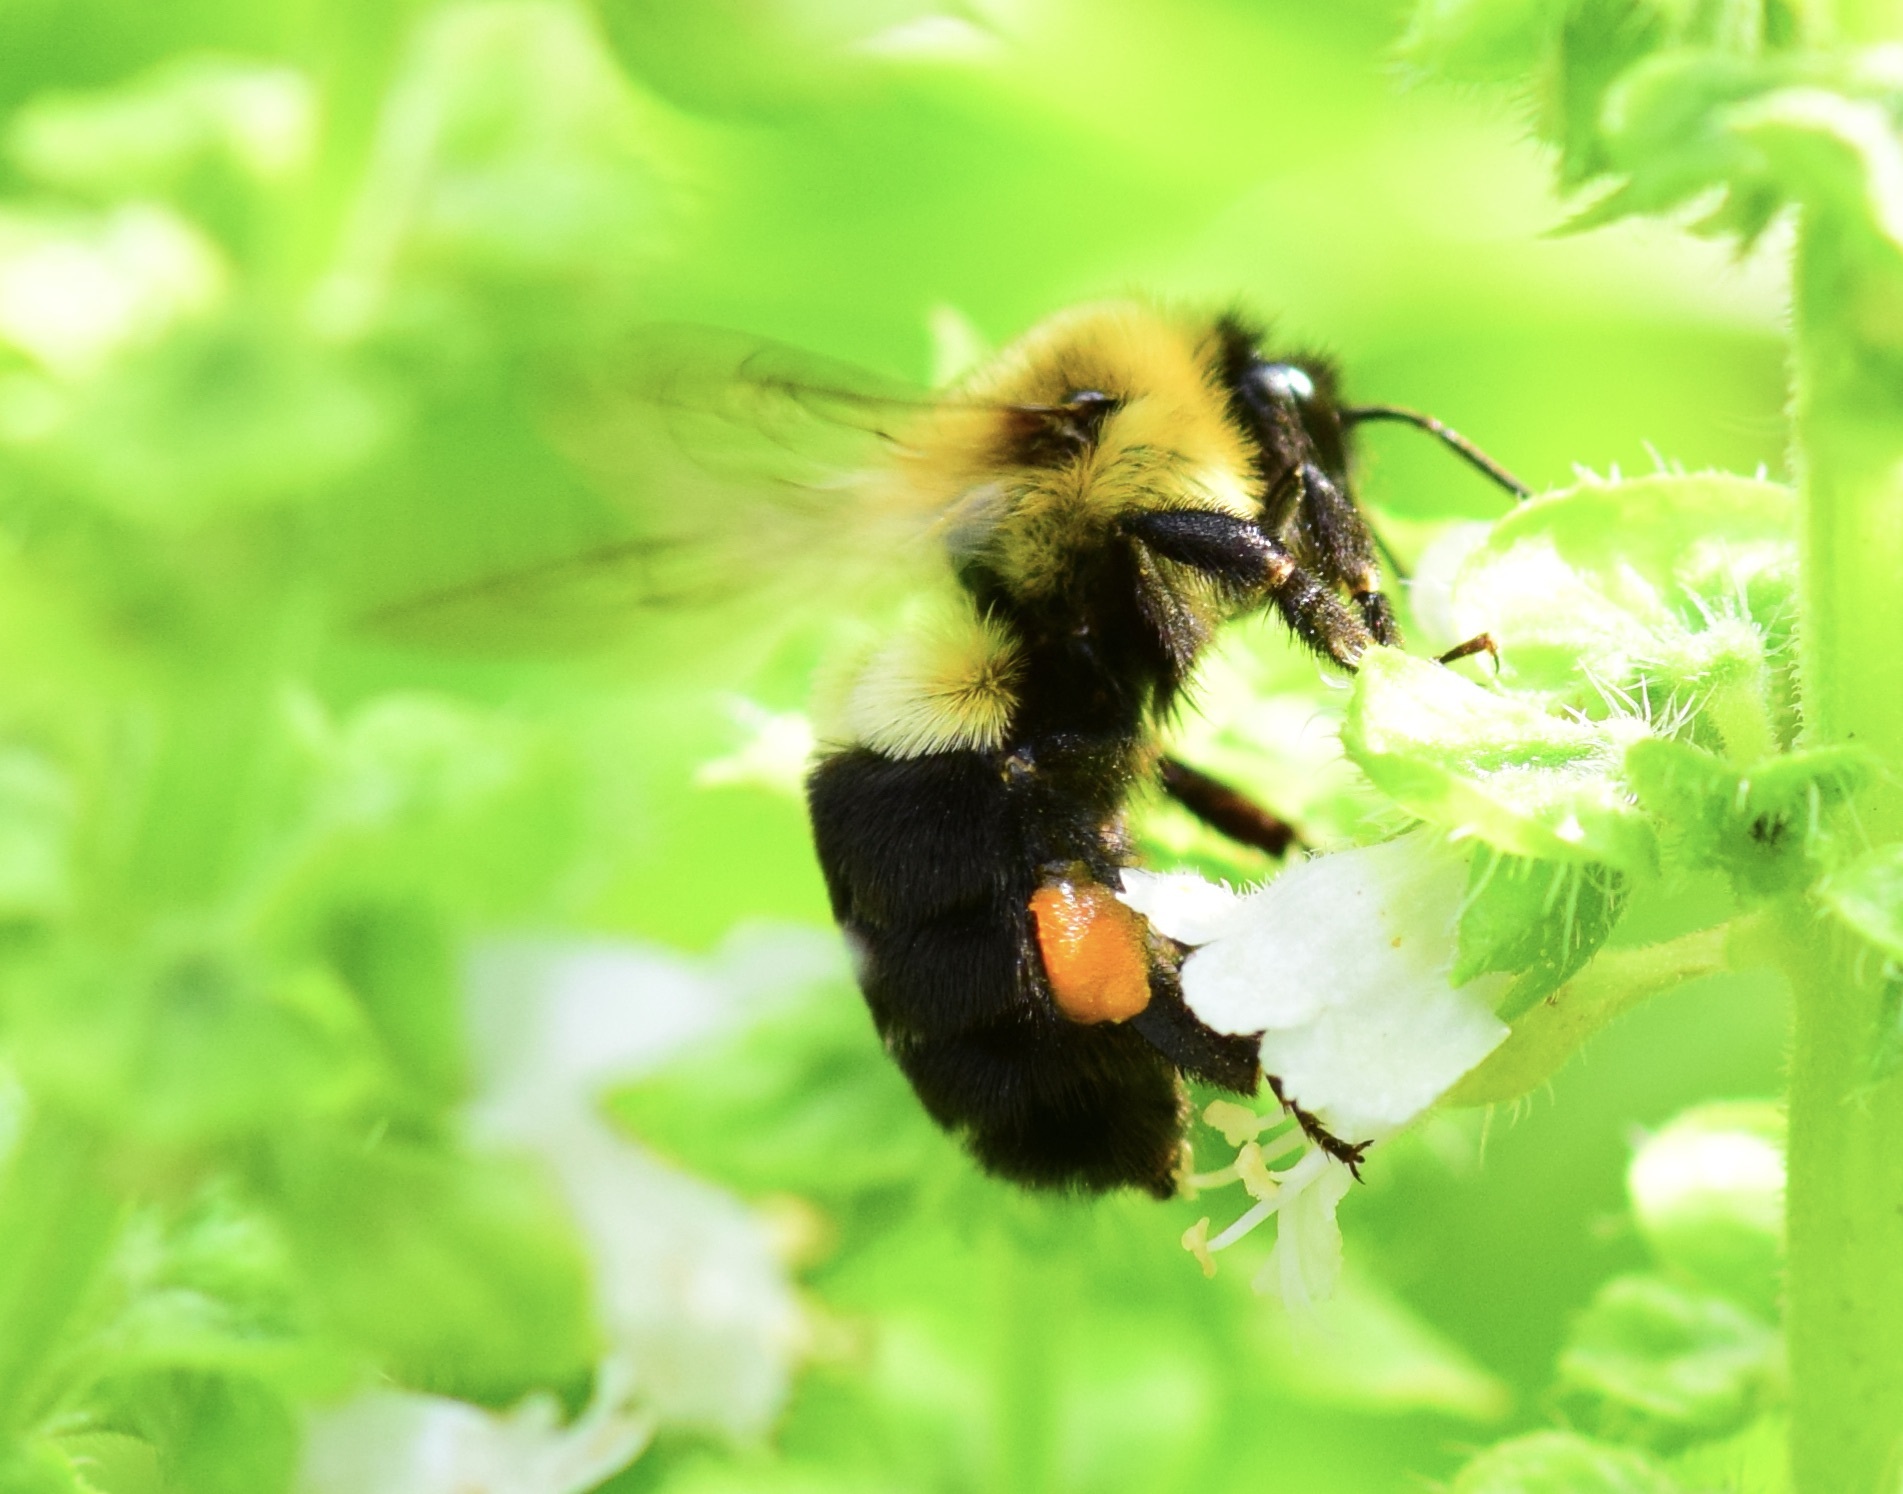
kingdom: Animalia
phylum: Arthropoda
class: Insecta
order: Hymenoptera
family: Apidae
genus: Bombus
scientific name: Bombus impatiens
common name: Common eastern bumble bee
